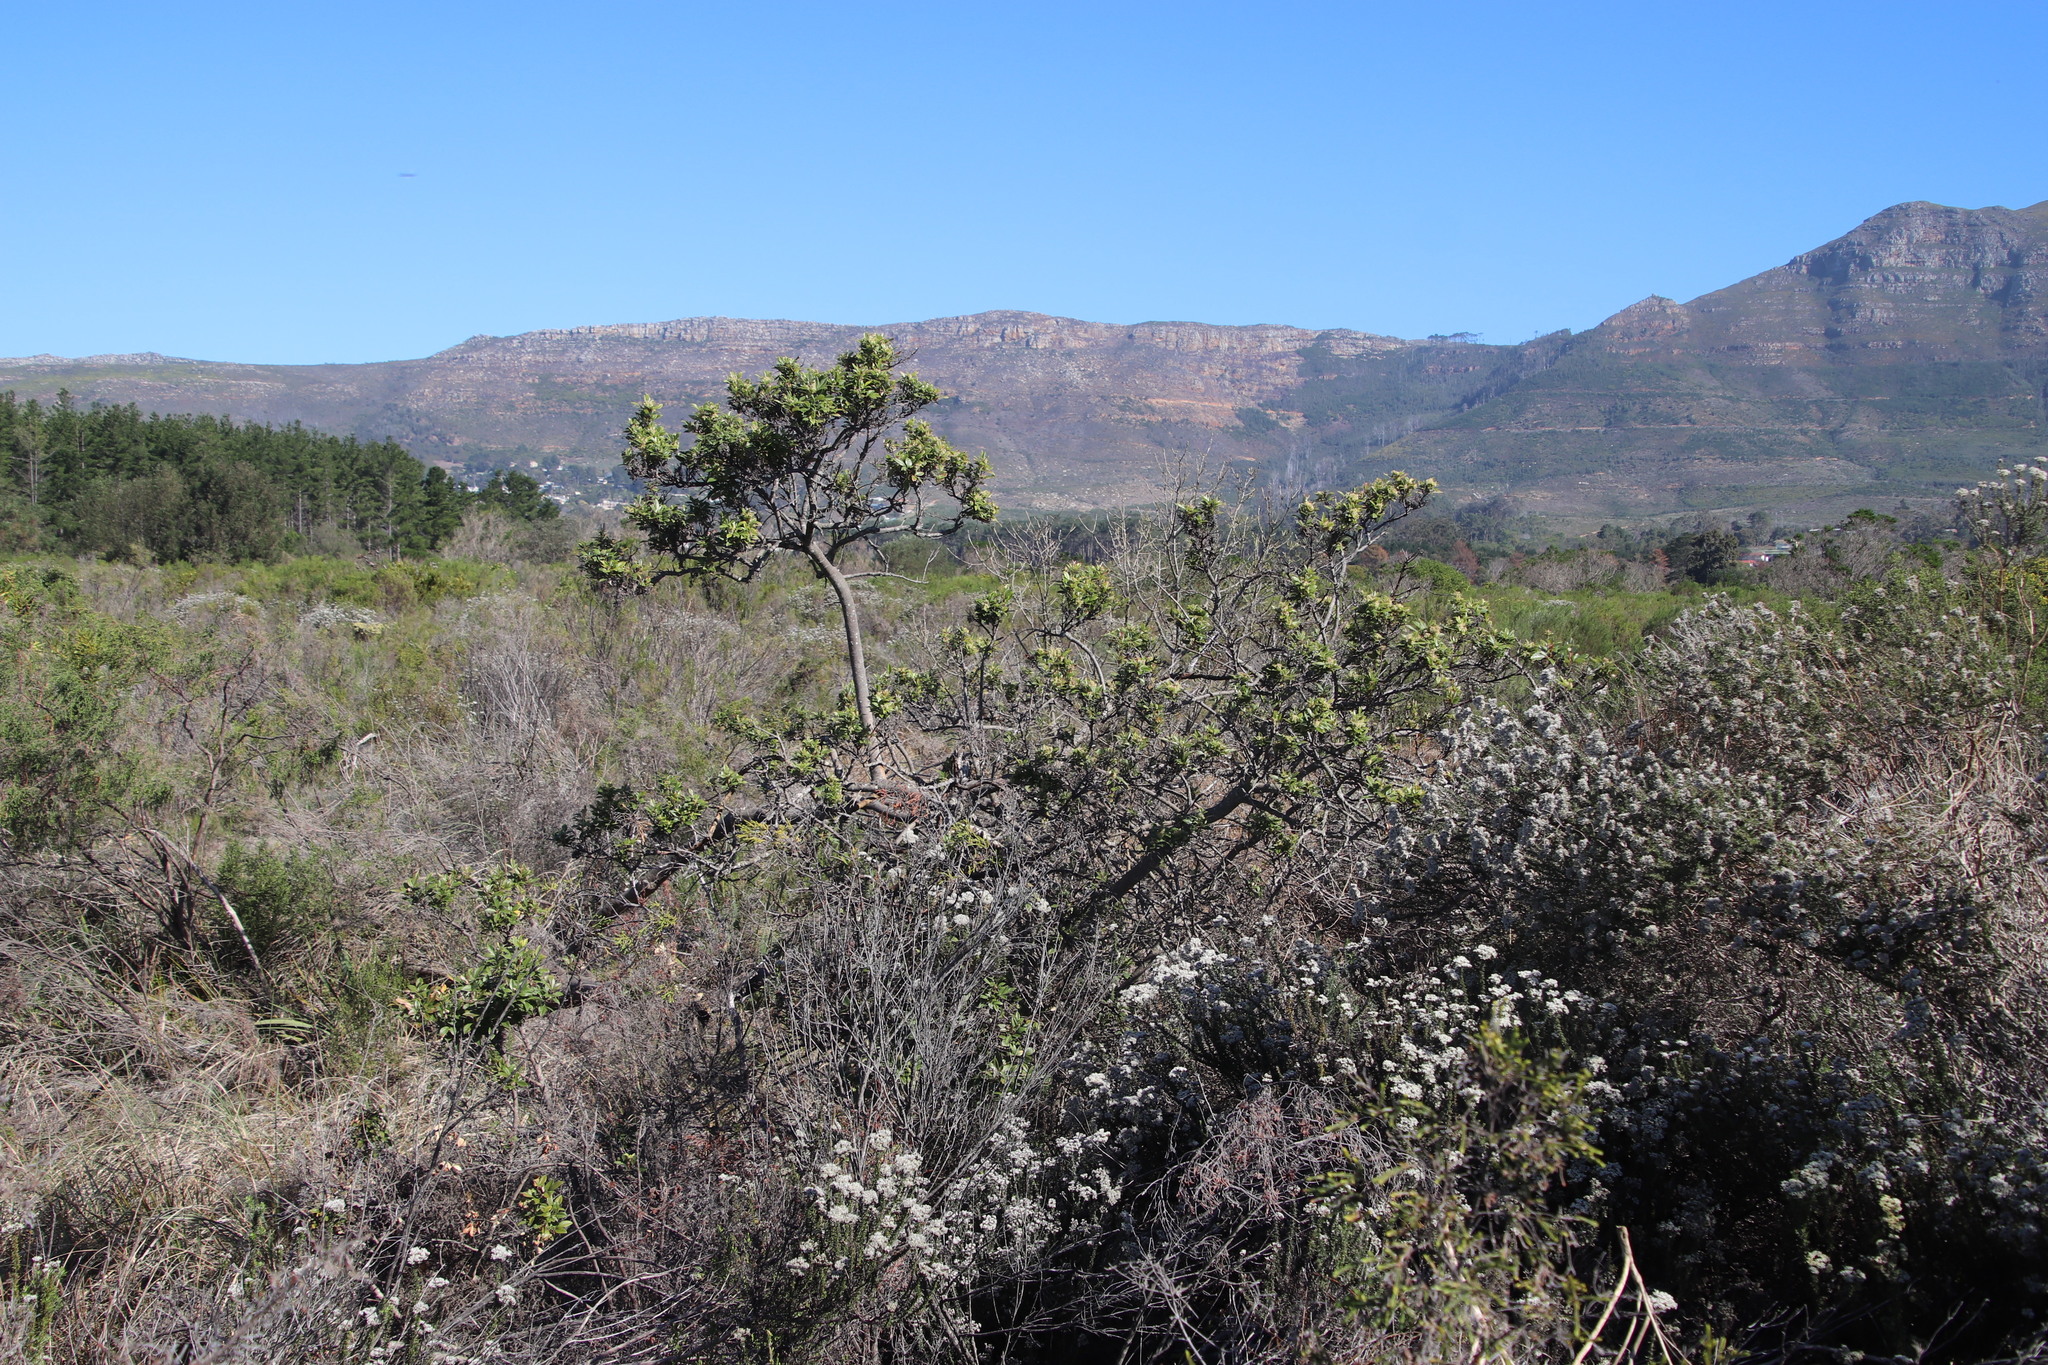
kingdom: Plantae
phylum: Tracheophyta
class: Magnoliopsida
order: Sapindales
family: Anacardiaceae
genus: Searsia
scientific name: Searsia tomentosa
